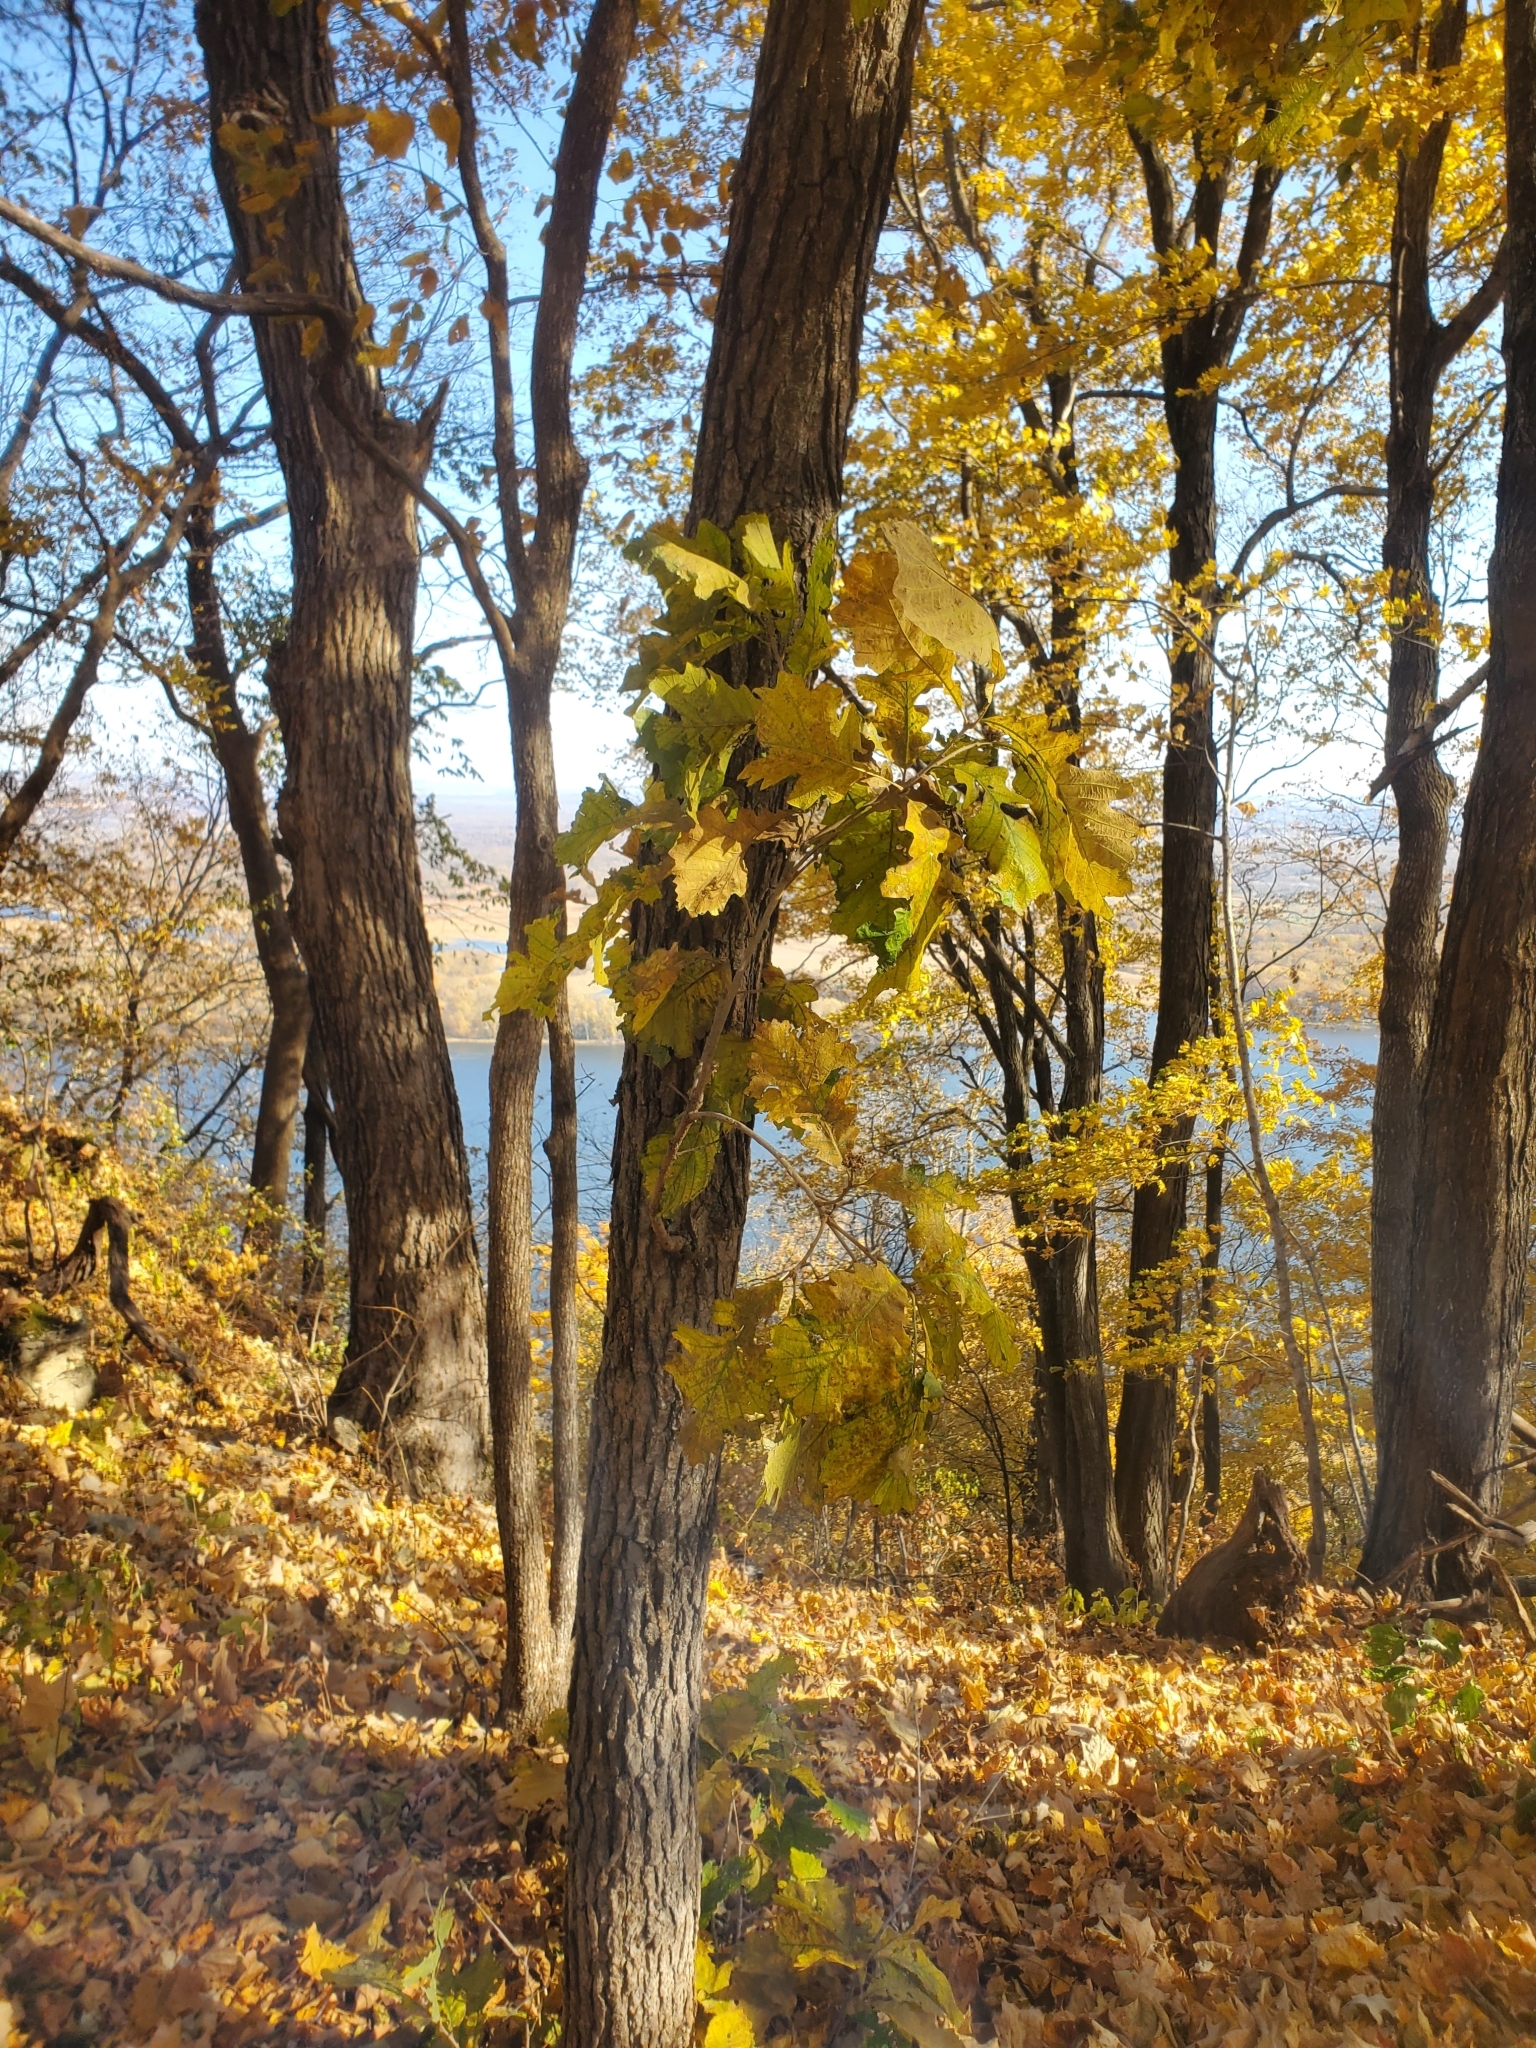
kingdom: Plantae
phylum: Tracheophyta
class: Magnoliopsida
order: Fagales
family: Fagaceae
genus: Quercus
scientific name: Quercus macrocarpa
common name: Bur oak
